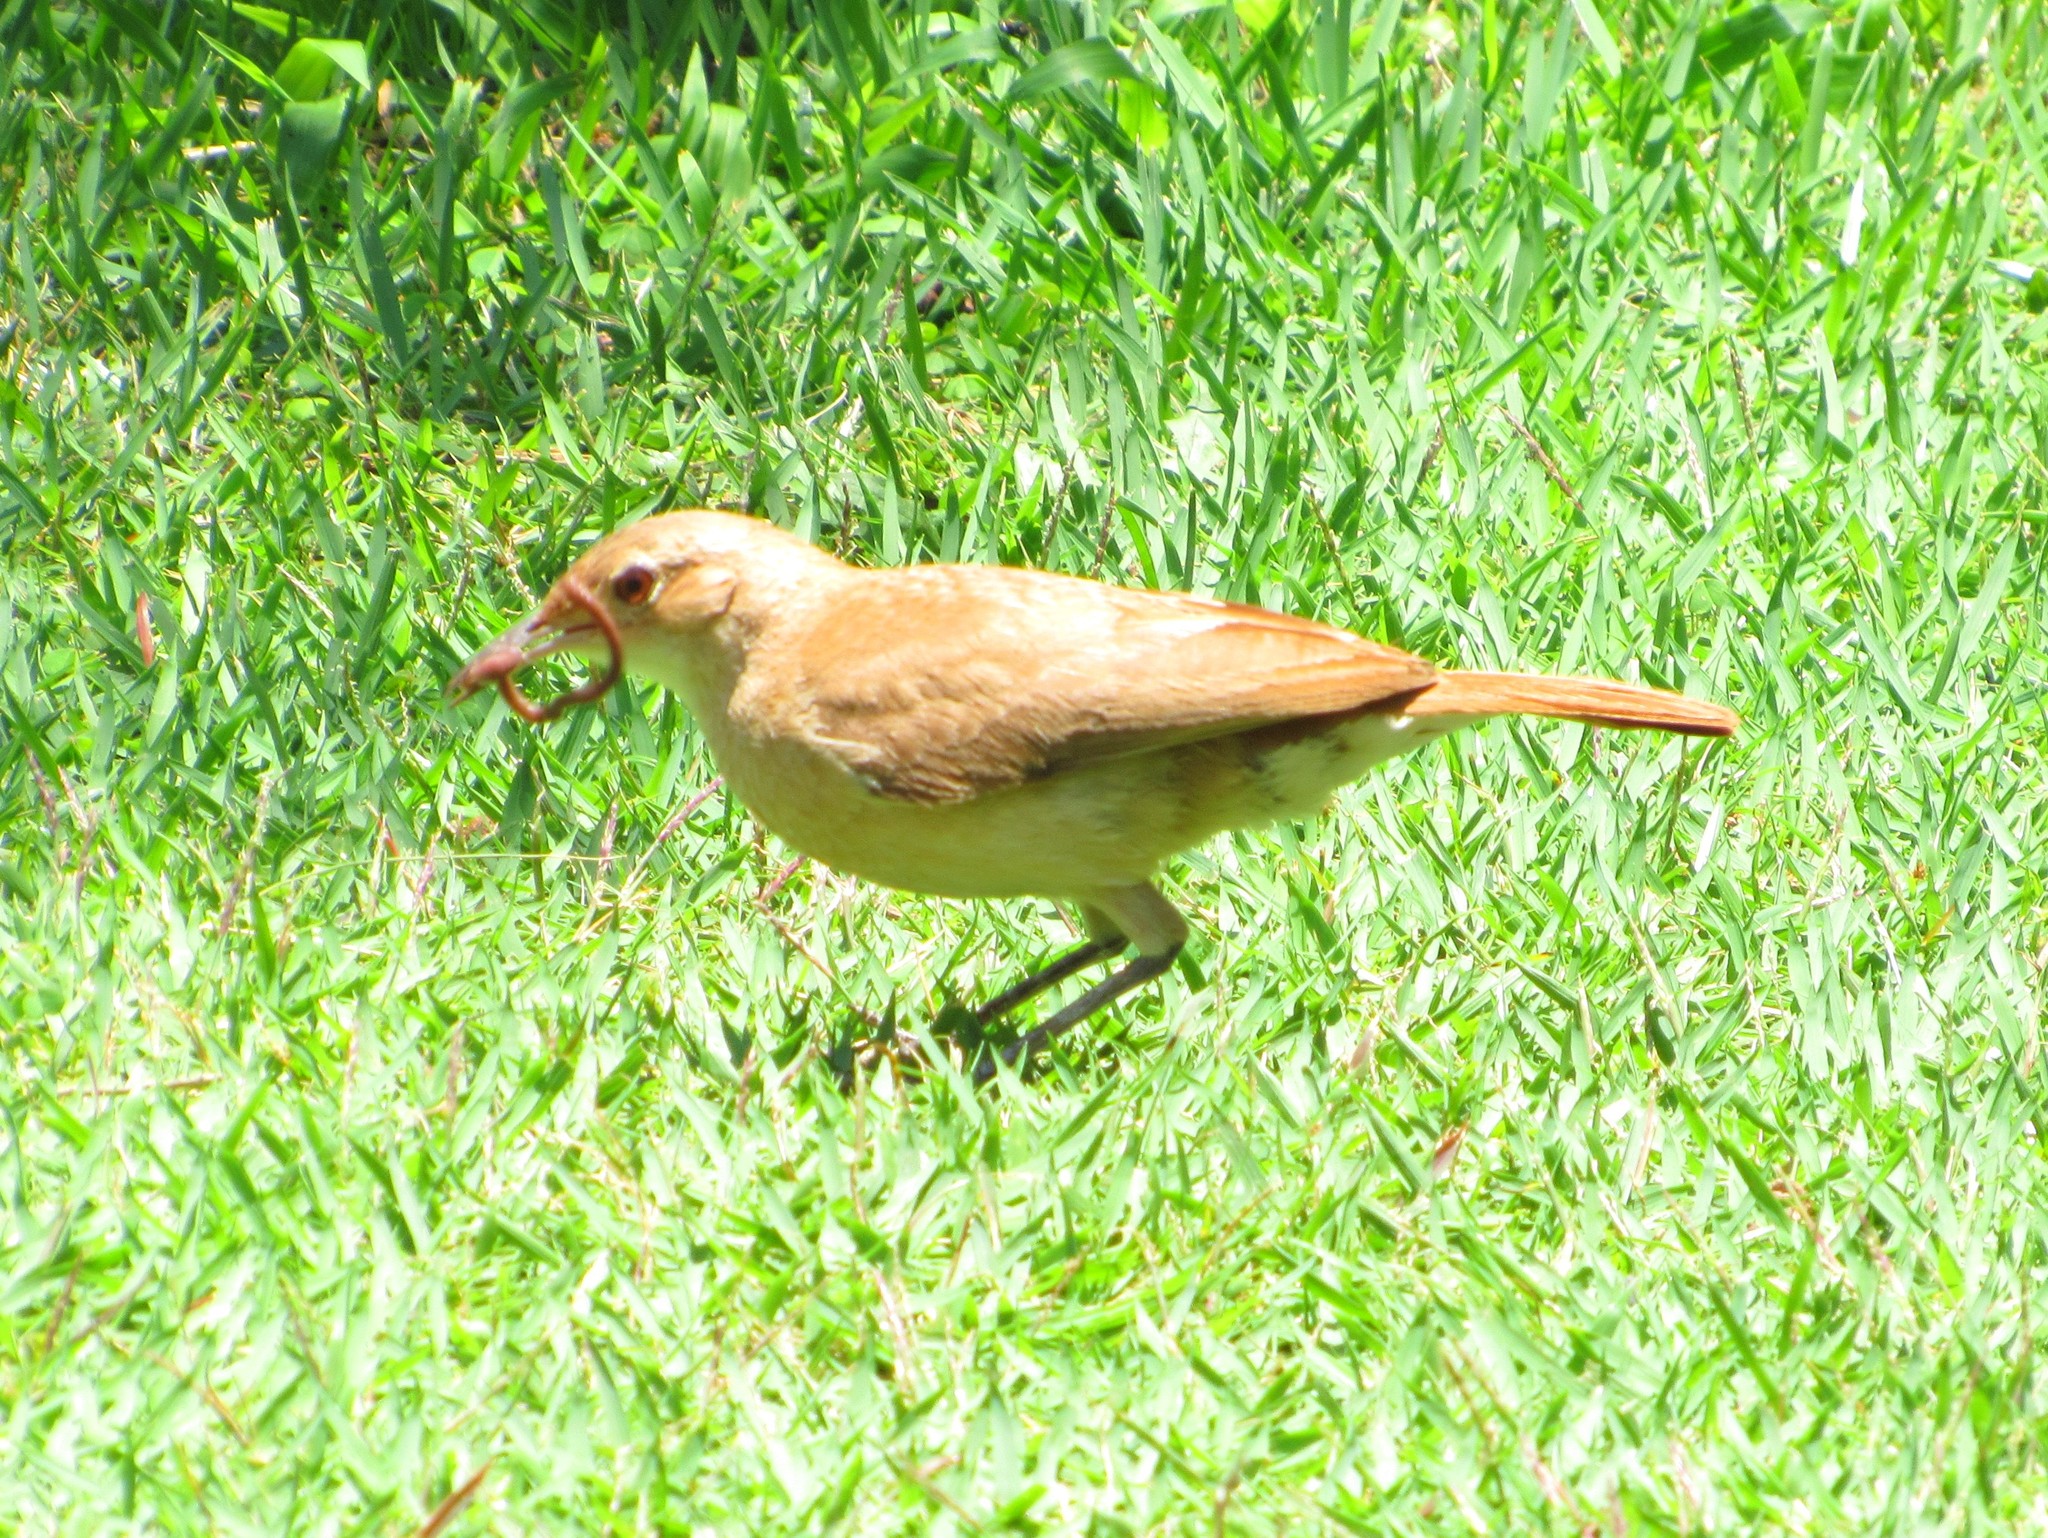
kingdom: Animalia
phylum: Chordata
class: Aves
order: Passeriformes
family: Furnariidae
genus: Furnarius
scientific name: Furnarius rufus
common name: Rufous hornero
